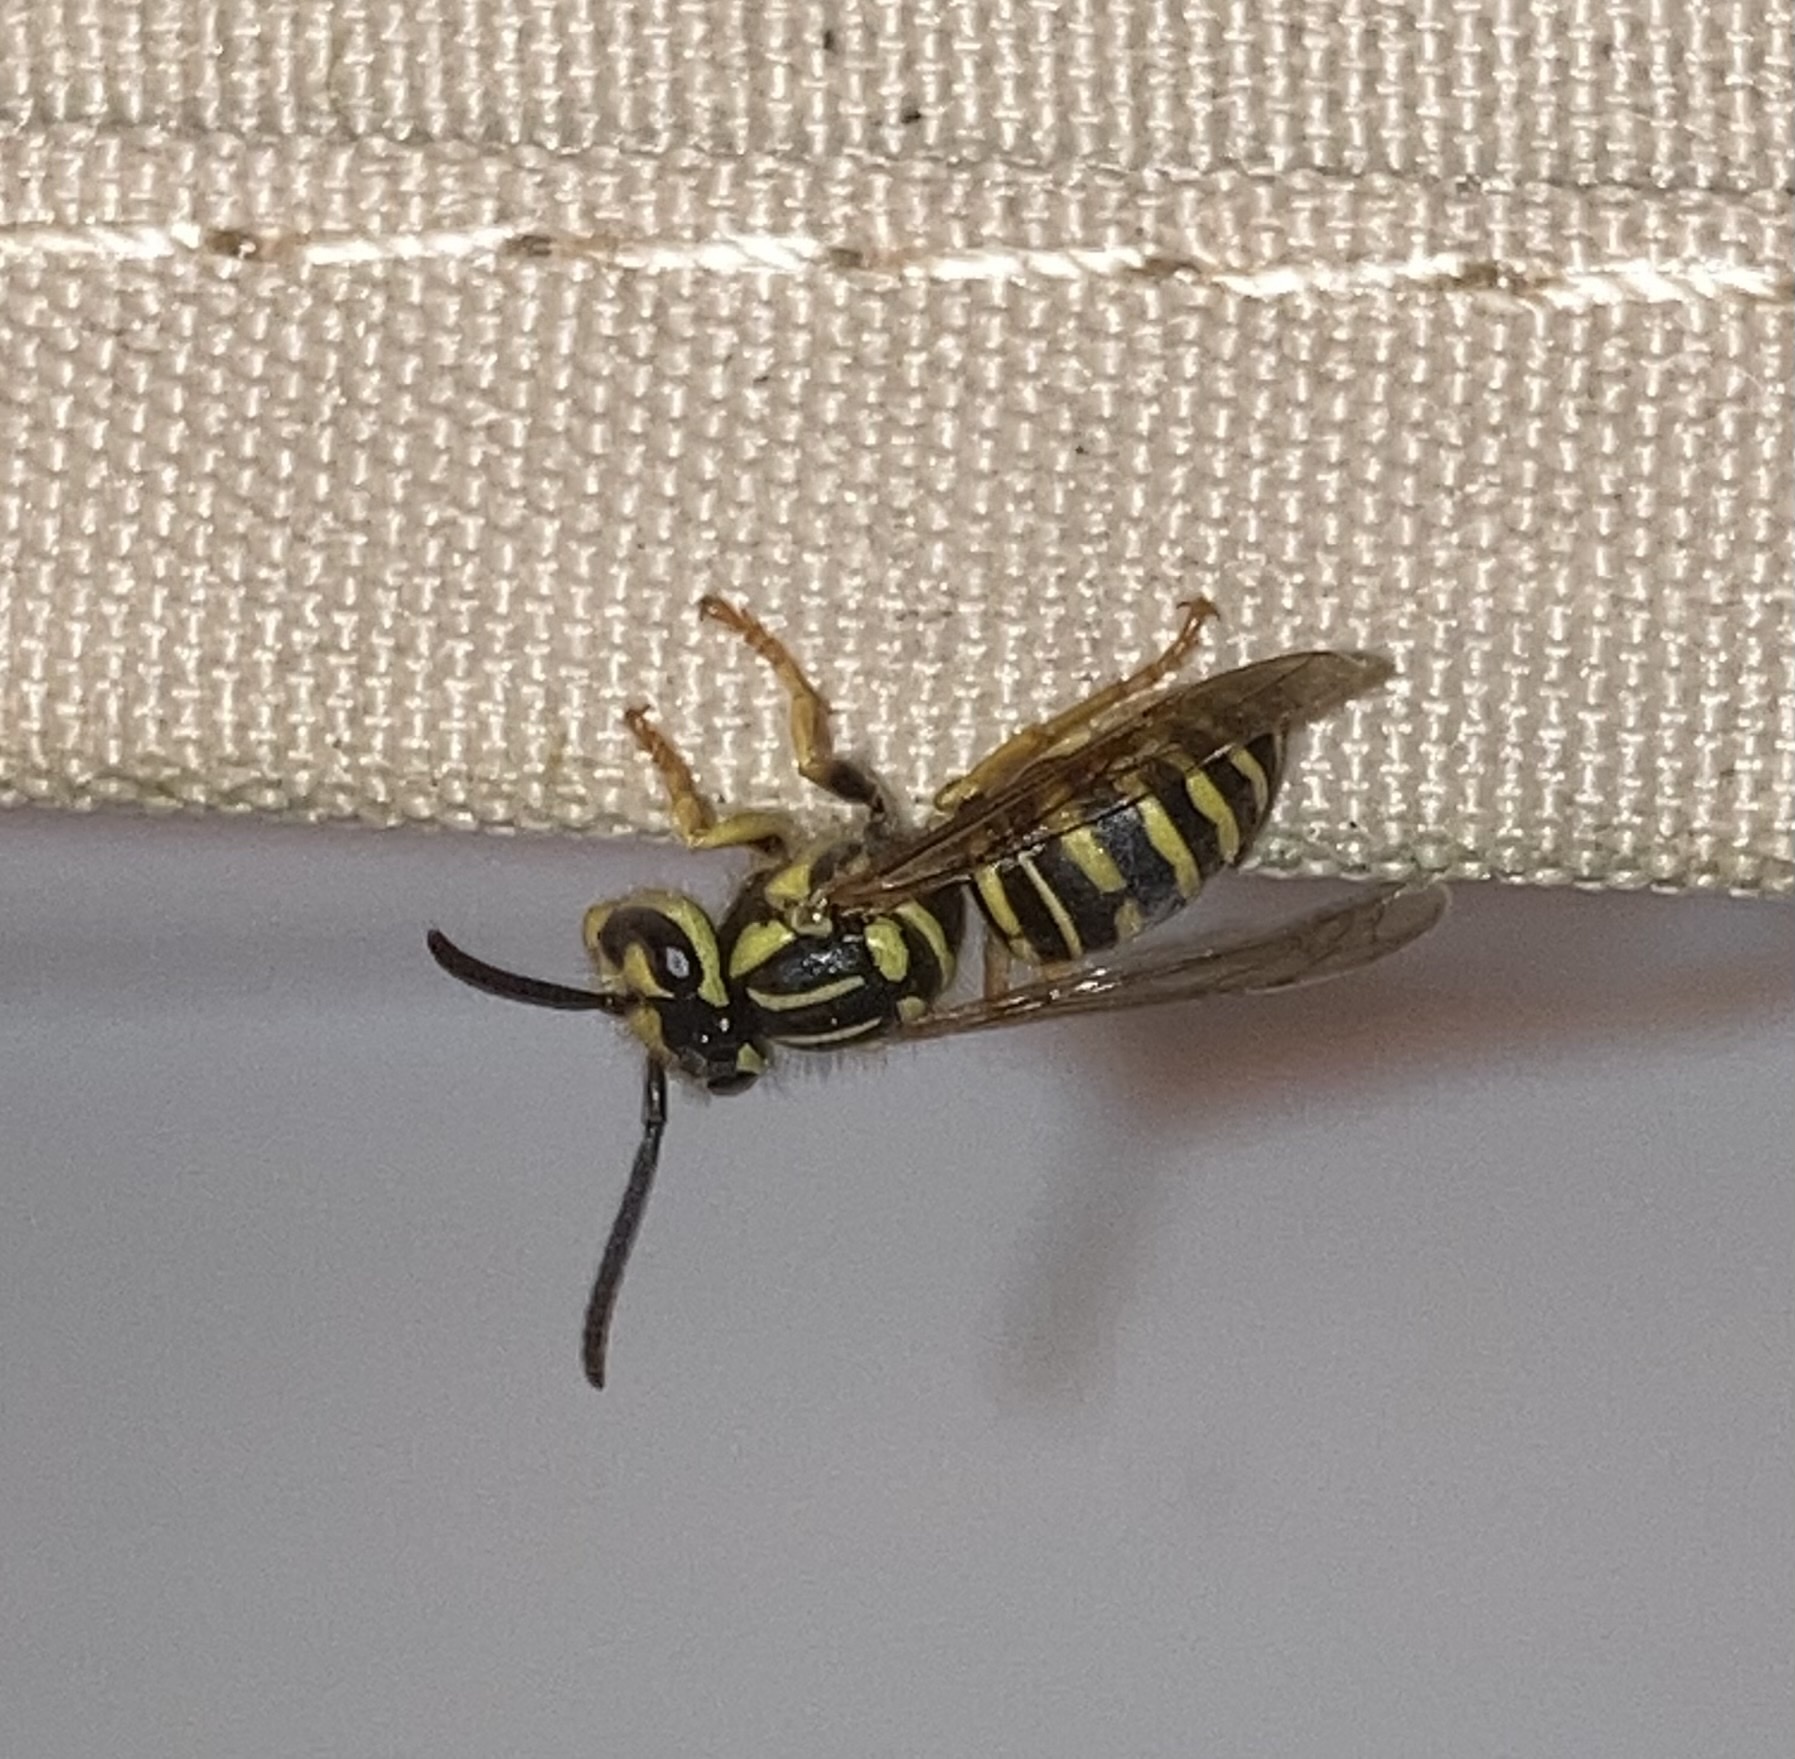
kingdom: Animalia
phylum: Arthropoda
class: Insecta
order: Hymenoptera
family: Vespidae
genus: Vespula
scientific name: Vespula squamosa
